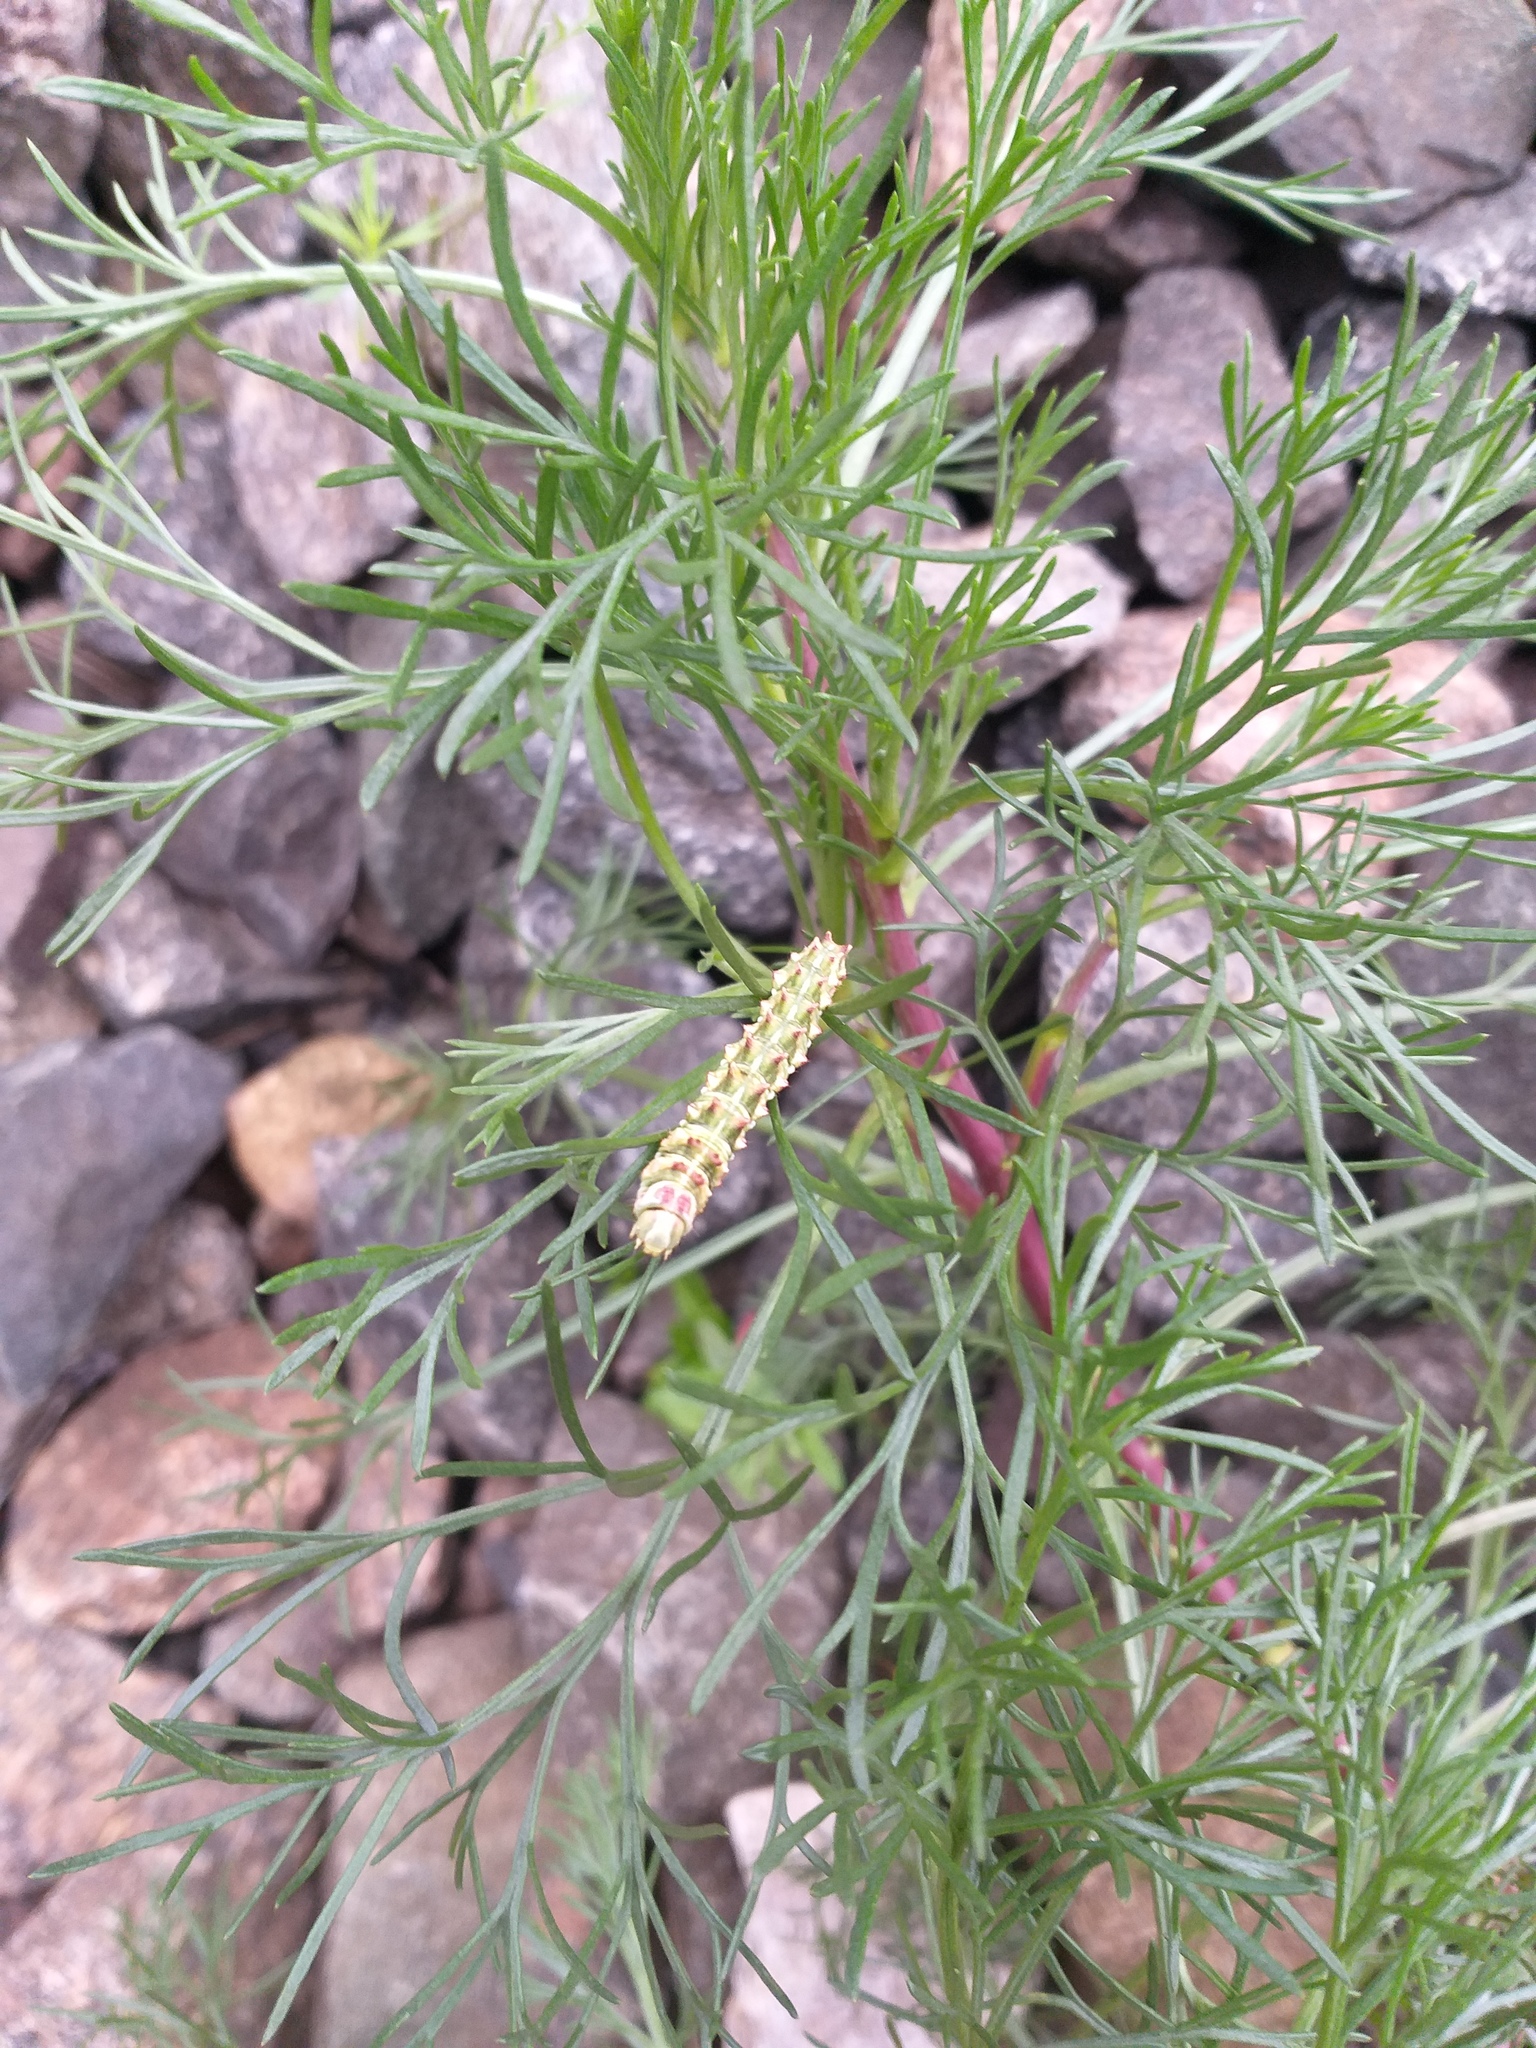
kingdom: Animalia
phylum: Arthropoda
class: Insecta
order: Lepidoptera
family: Noctuidae
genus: Cucullia
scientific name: Cucullia artemisiae
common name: Scarce wormwood
